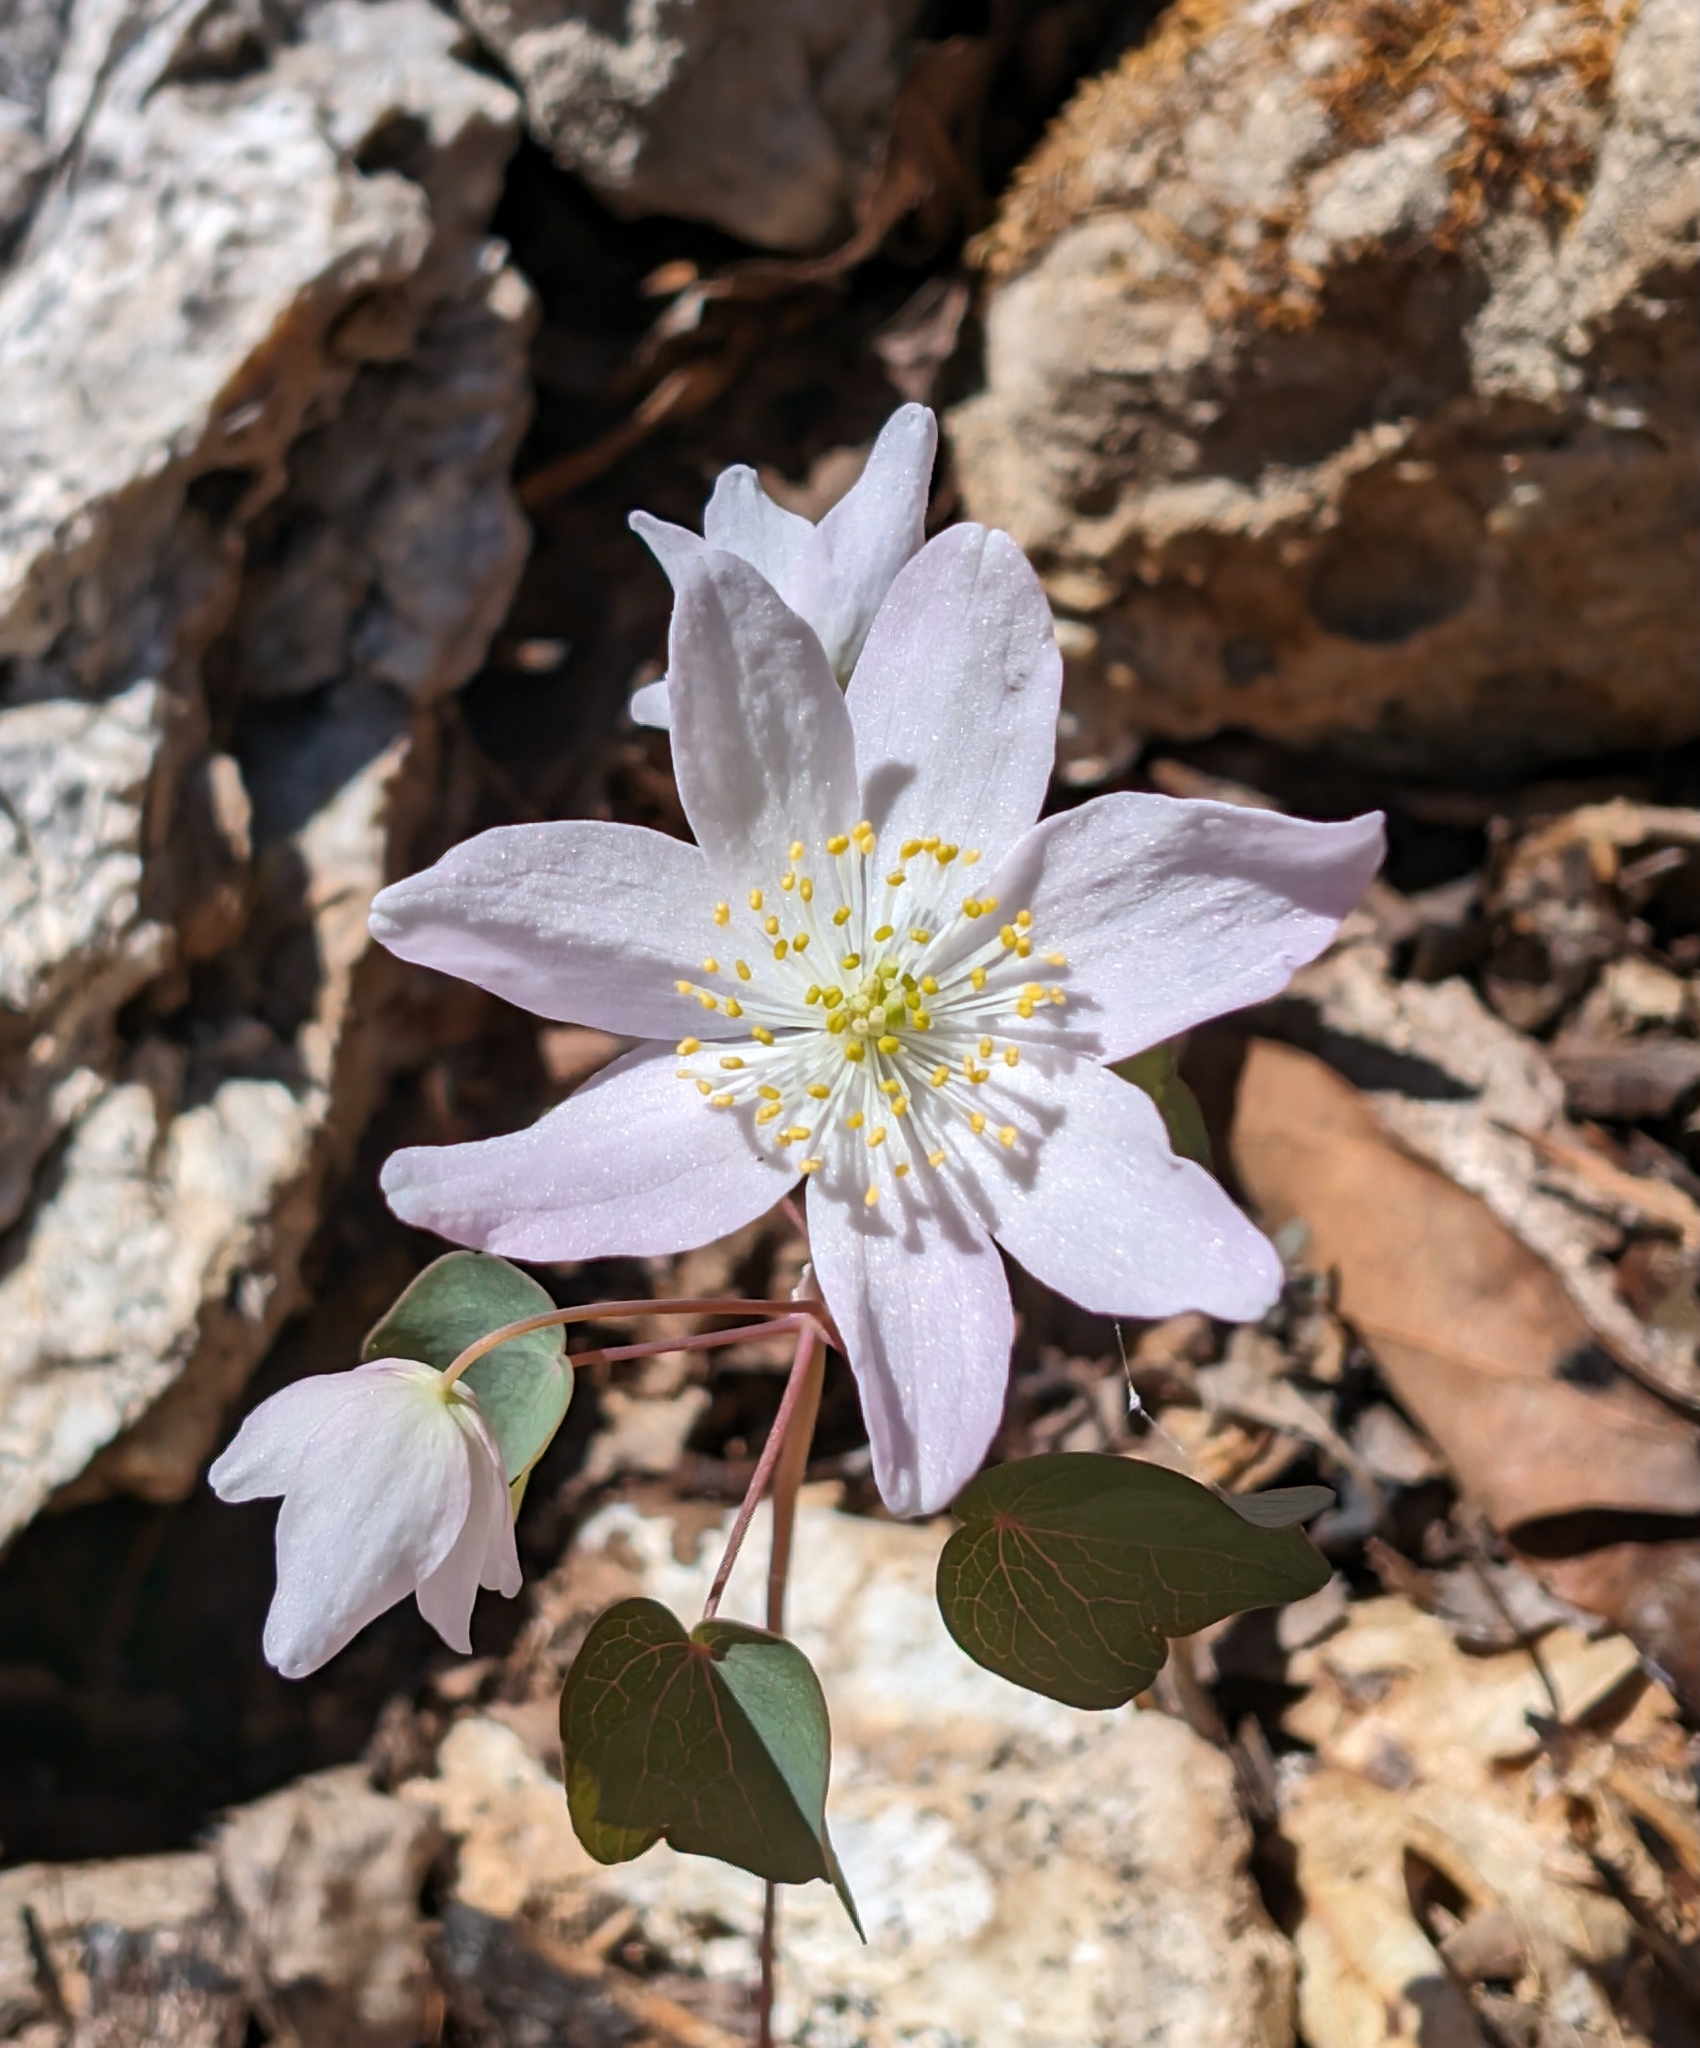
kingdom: Plantae
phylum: Tracheophyta
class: Magnoliopsida
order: Ranunculales
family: Ranunculaceae
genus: Thalictrum
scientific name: Thalictrum thalictroides
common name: Rue-anemone
